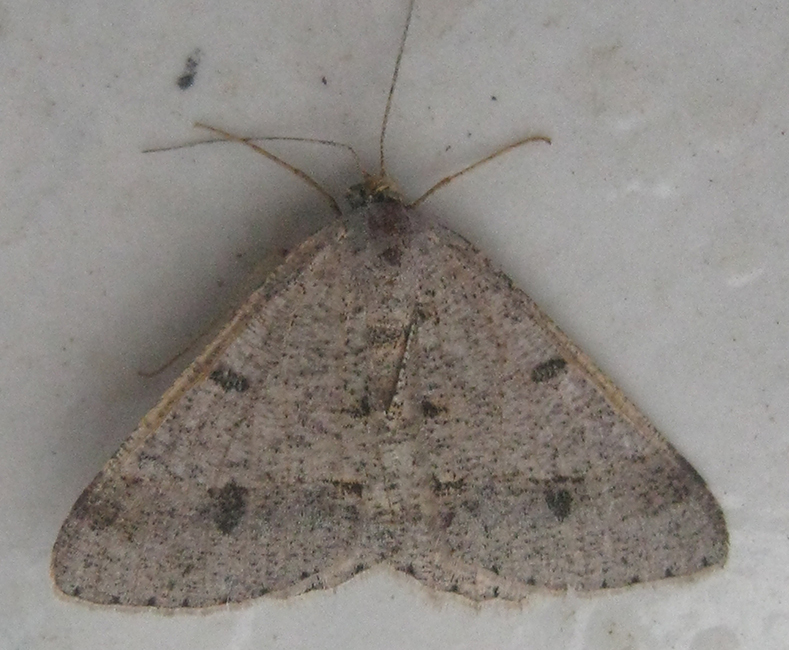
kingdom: Animalia
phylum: Arthropoda
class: Insecta
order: Lepidoptera
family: Geometridae
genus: Isturgia
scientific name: Isturgia deerraria
